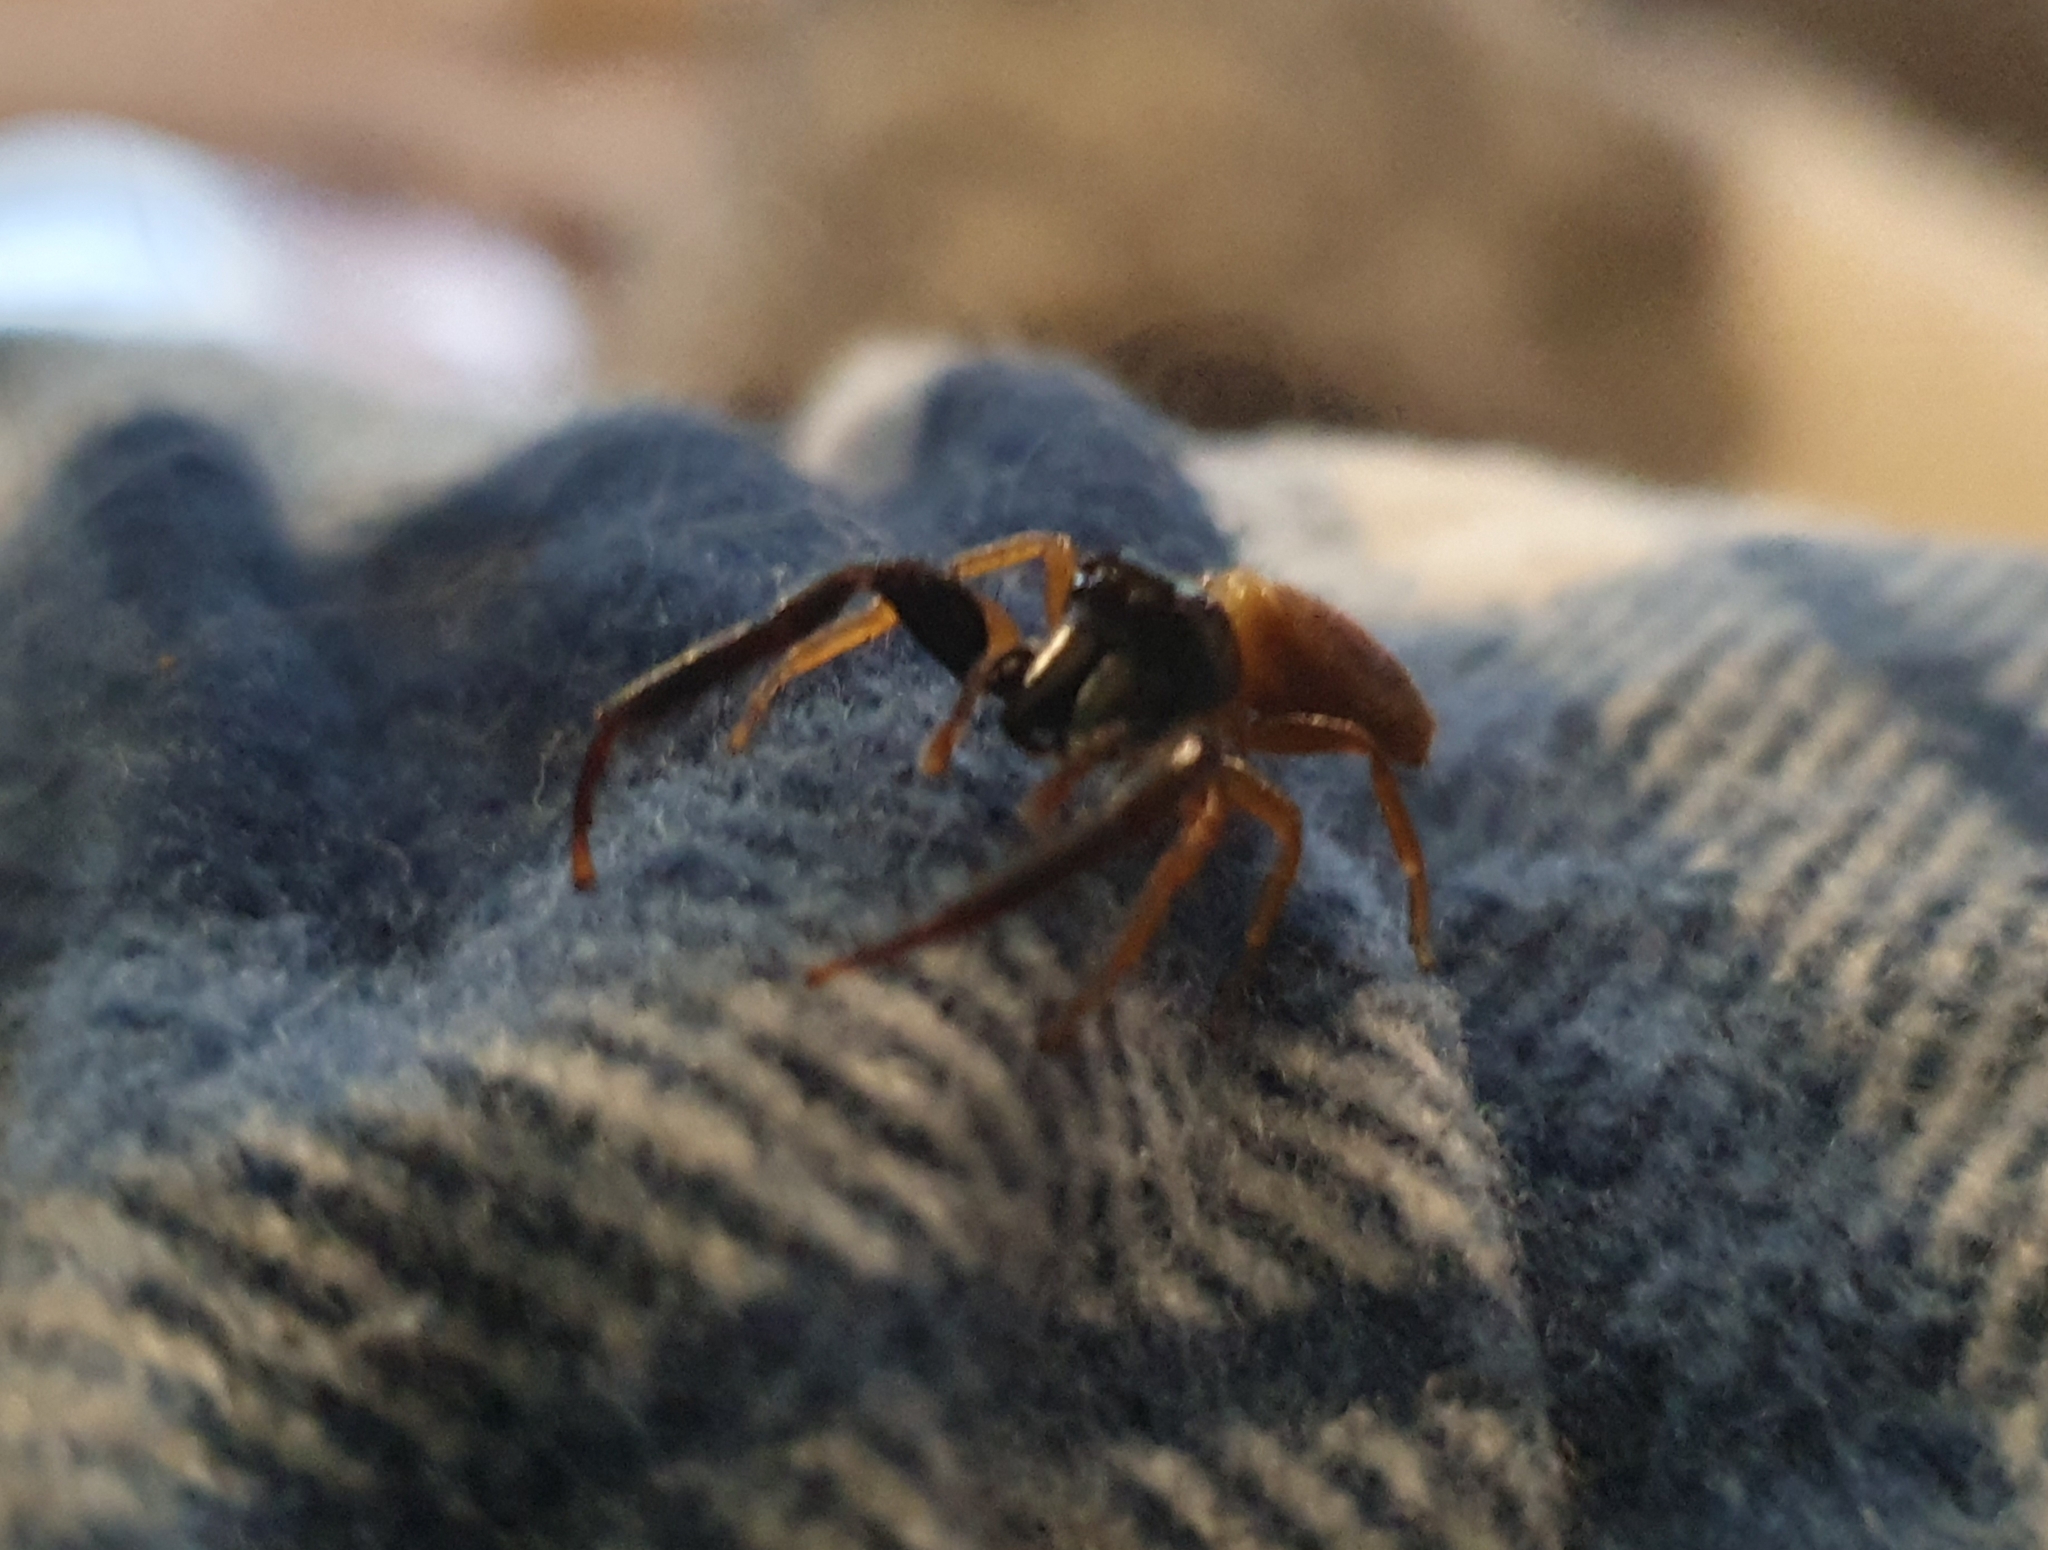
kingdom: Animalia
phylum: Arthropoda
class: Arachnida
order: Araneae
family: Salticidae
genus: Trite
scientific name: Trite planiceps
